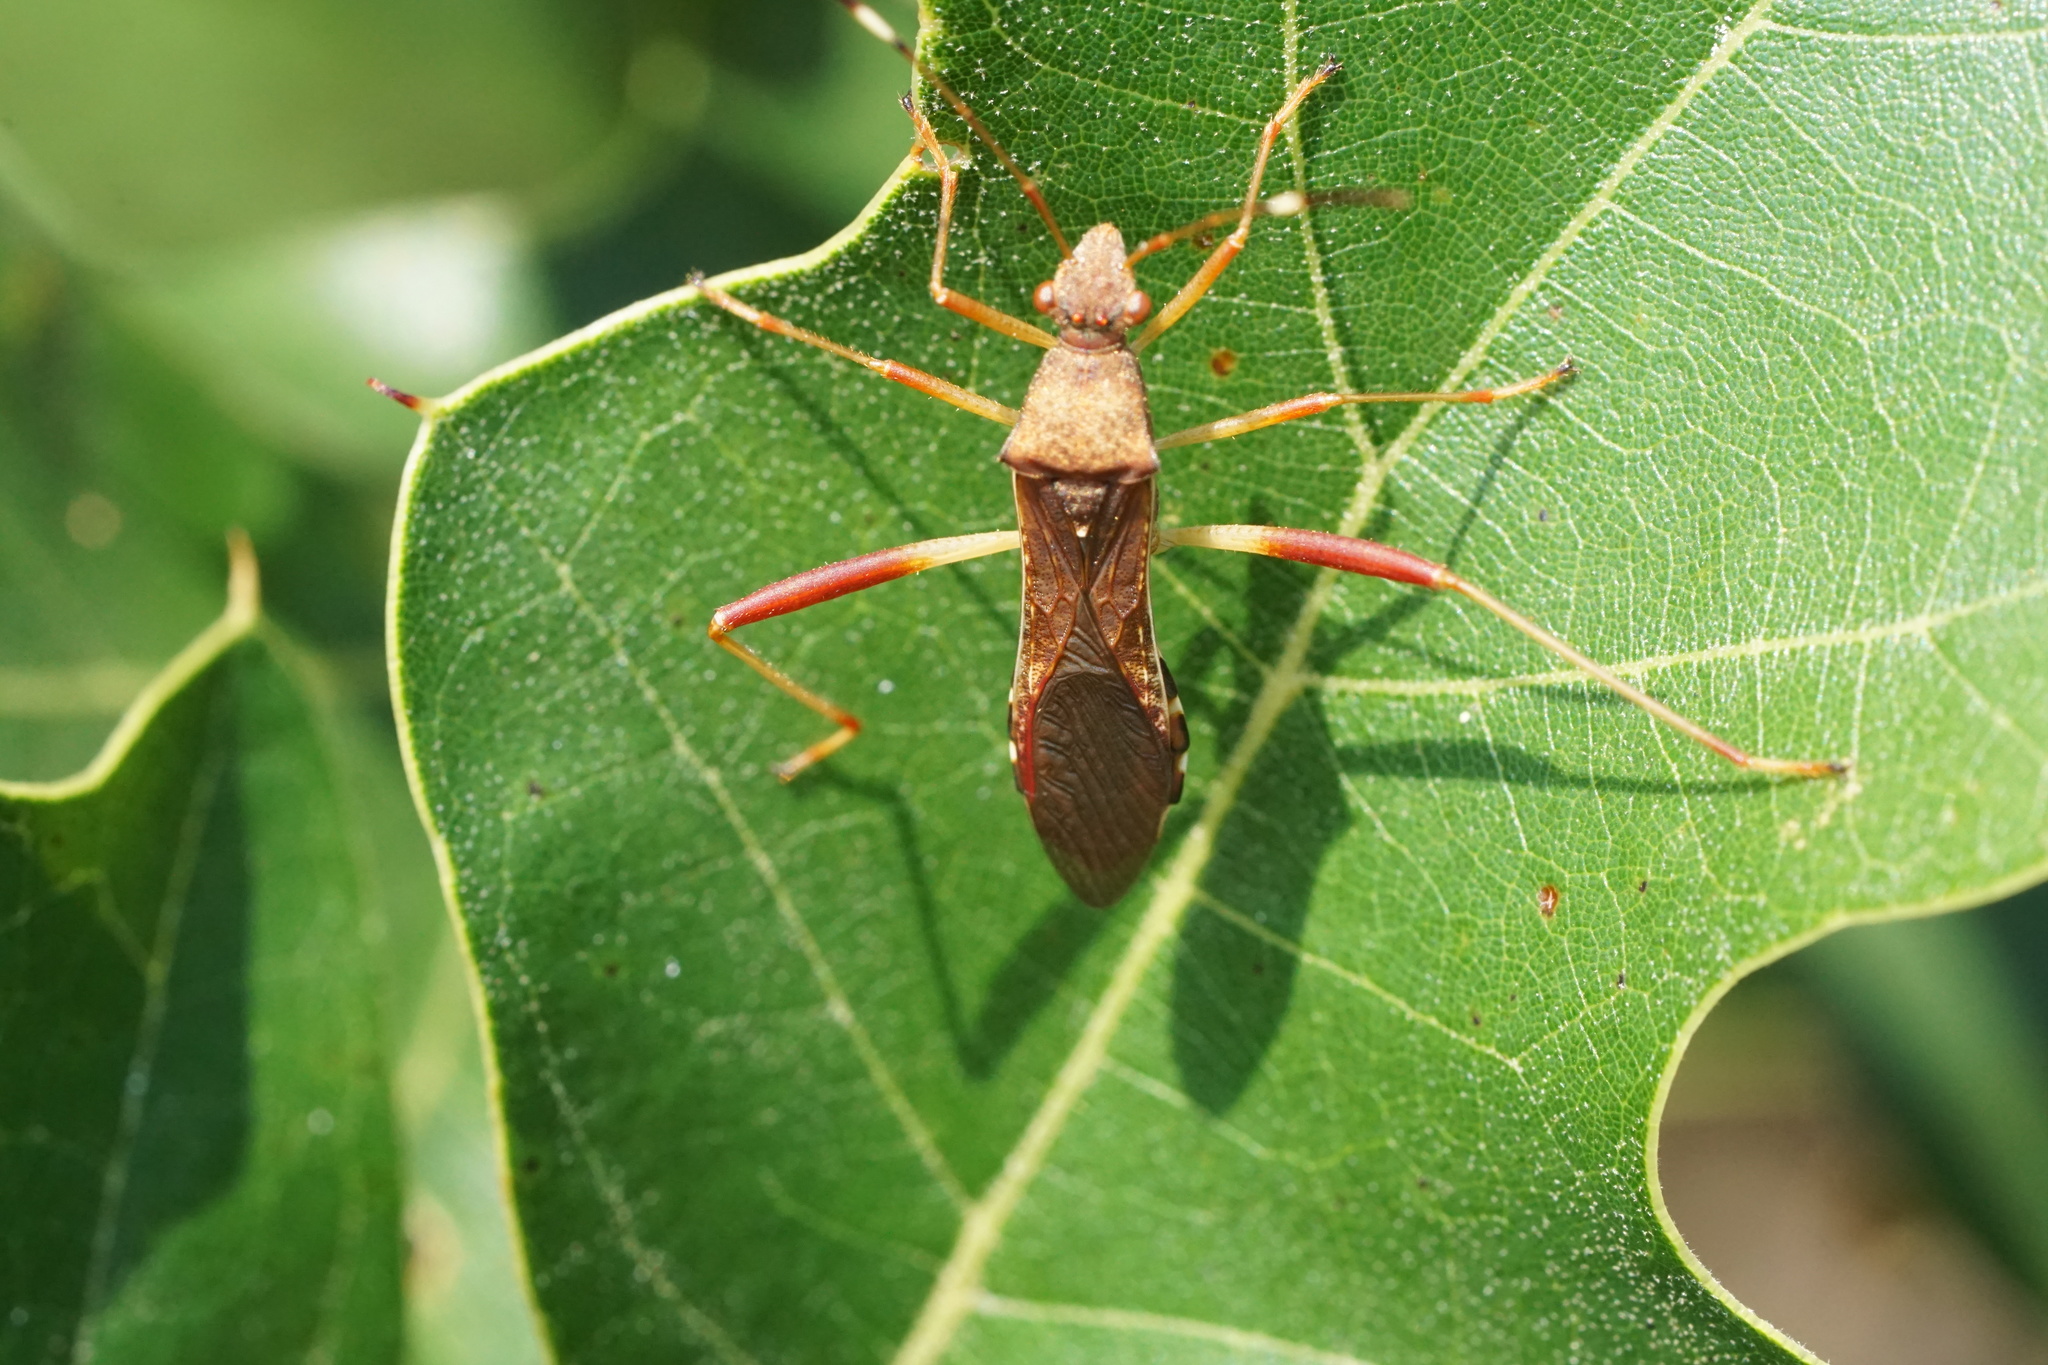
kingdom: Animalia
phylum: Arthropoda
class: Insecta
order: Hemiptera
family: Alydidae
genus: Megalotomus
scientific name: Megalotomus quinquespinosus
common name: Lupine bug
